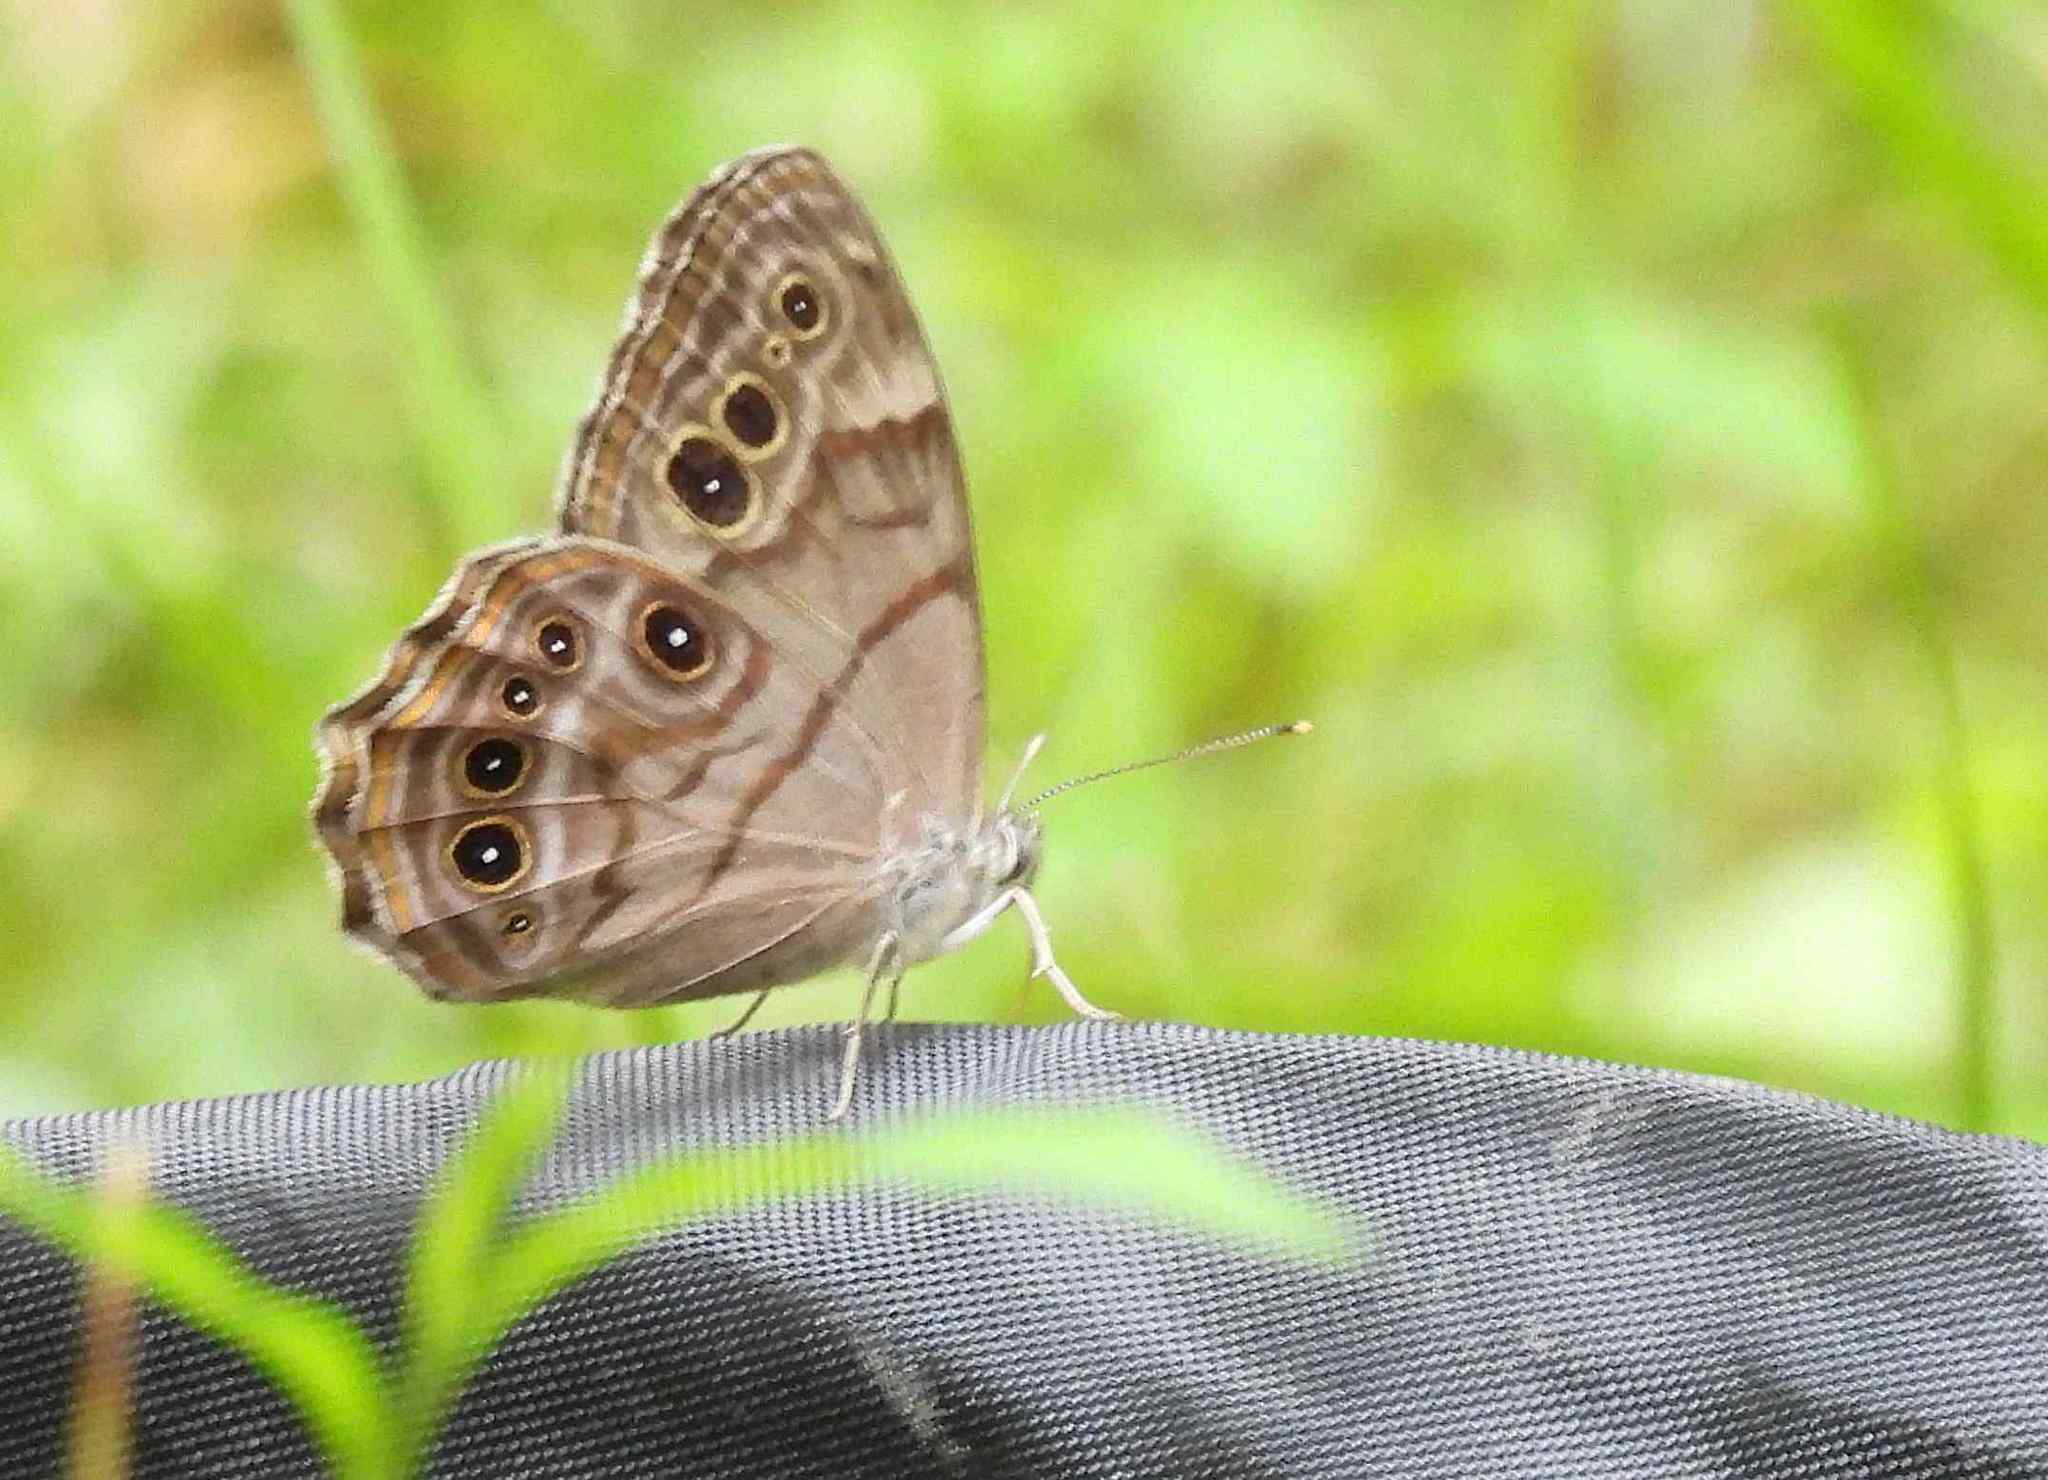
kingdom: Animalia
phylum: Arthropoda
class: Insecta
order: Lepidoptera
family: Nymphalidae
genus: Lethe
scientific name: Lethe anthedon
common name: Northern pearly-eye
